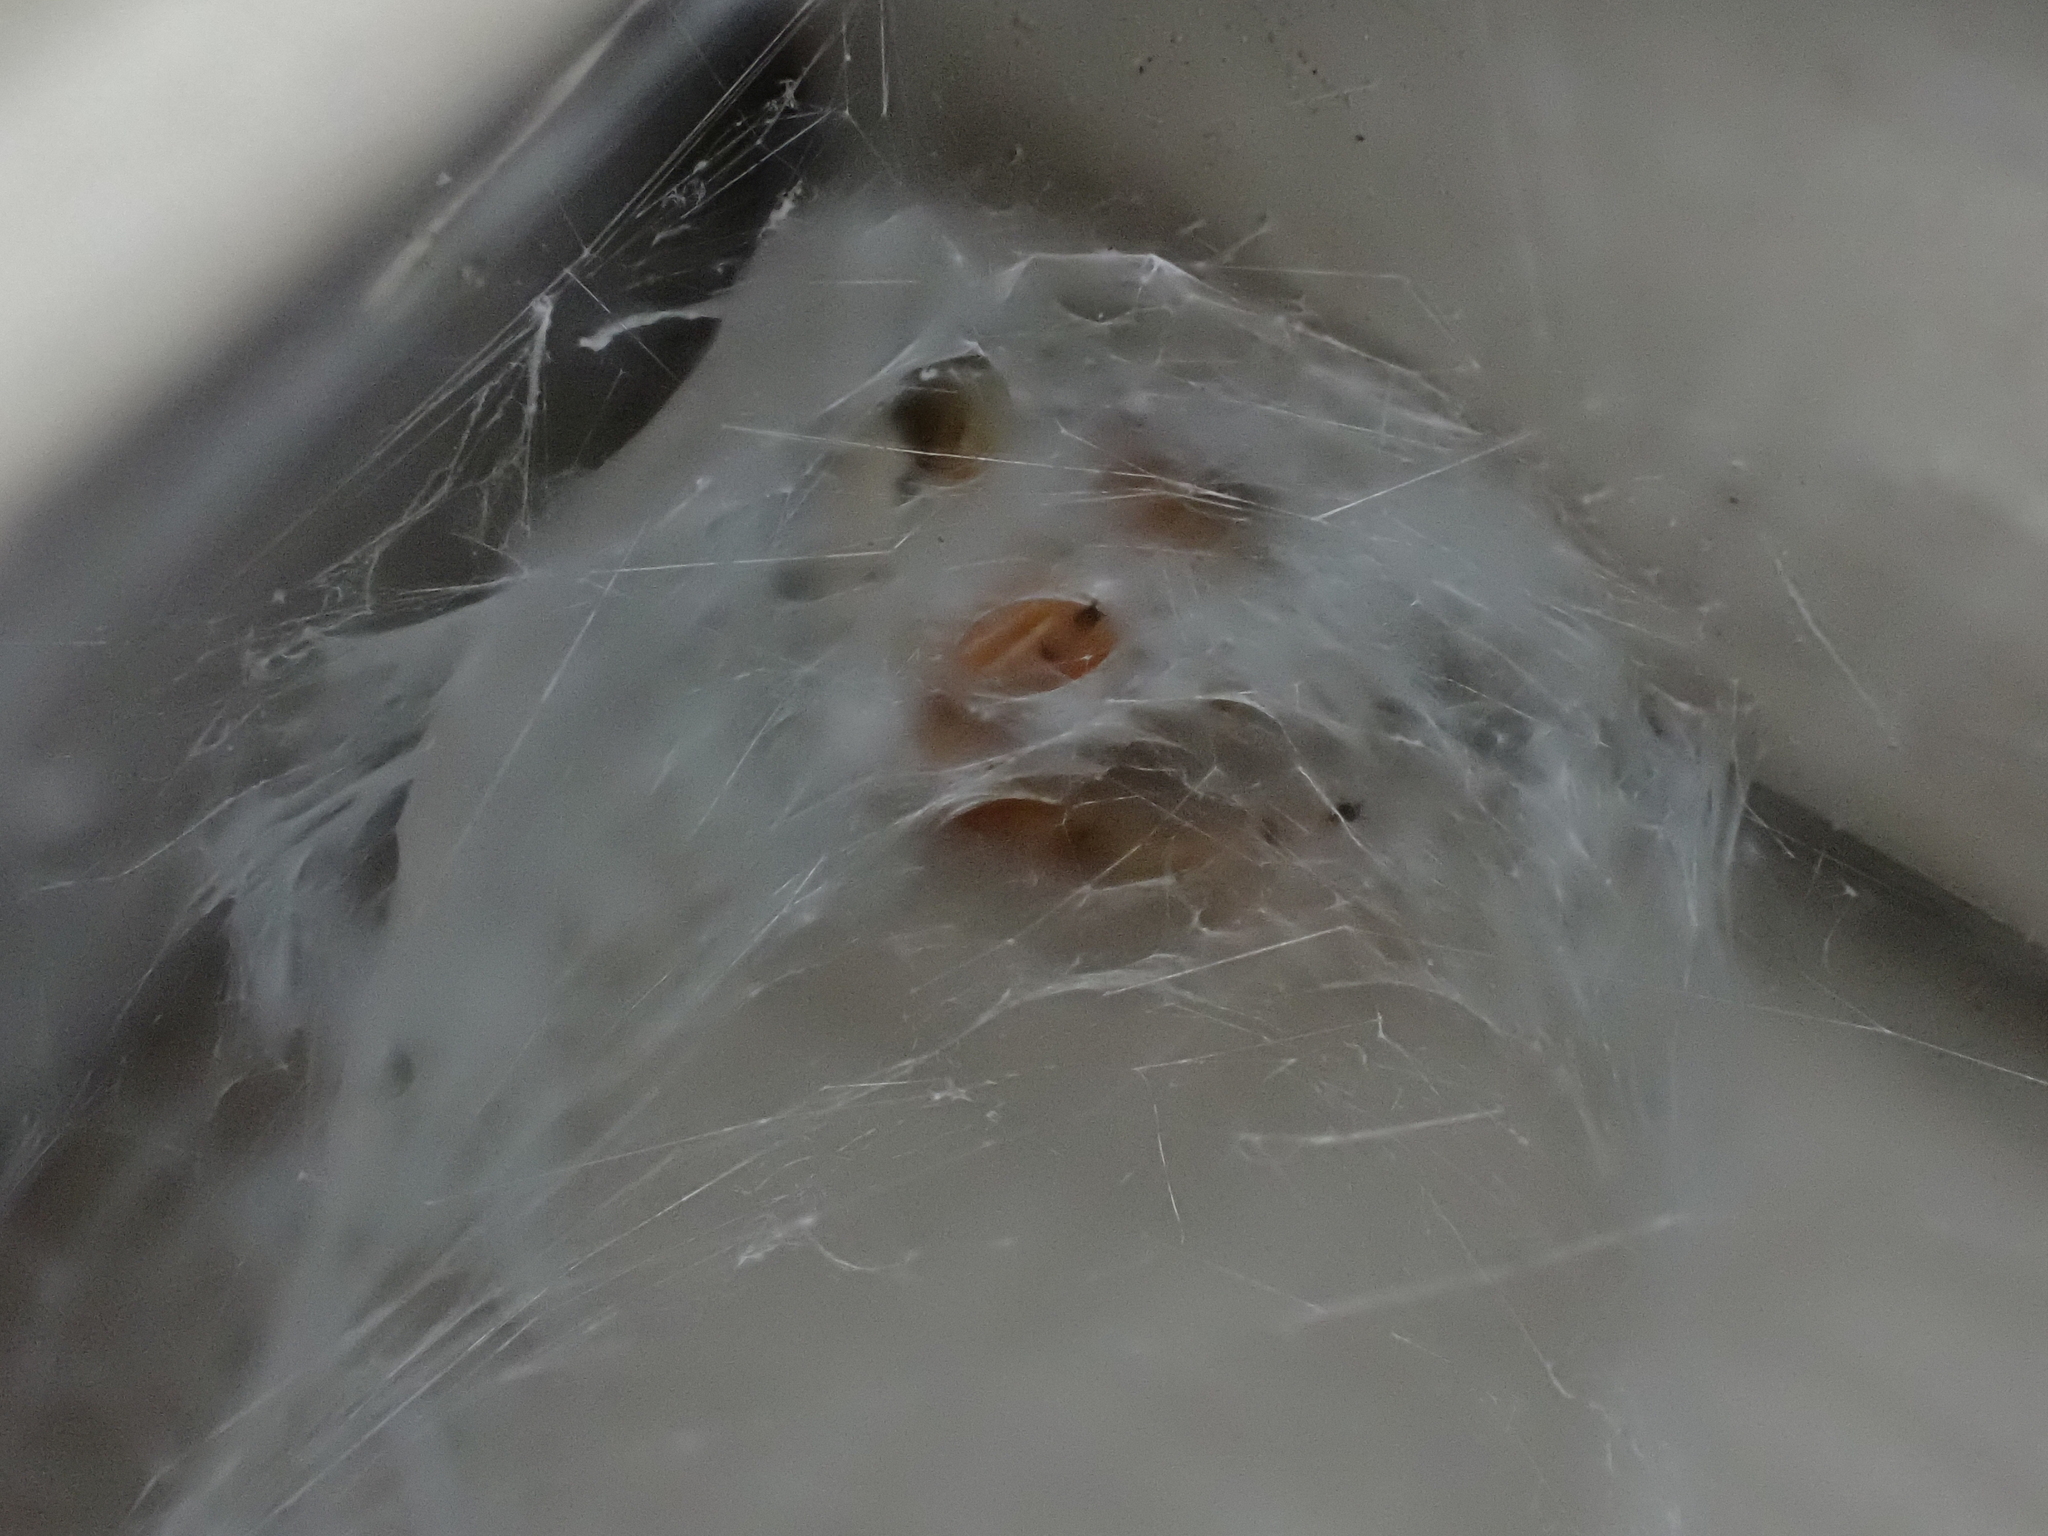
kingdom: Animalia
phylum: Arthropoda
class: Arachnida
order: Araneae
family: Araneidae
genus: Araneus
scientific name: Araneus thaddeus
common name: Lattice orbweaver
